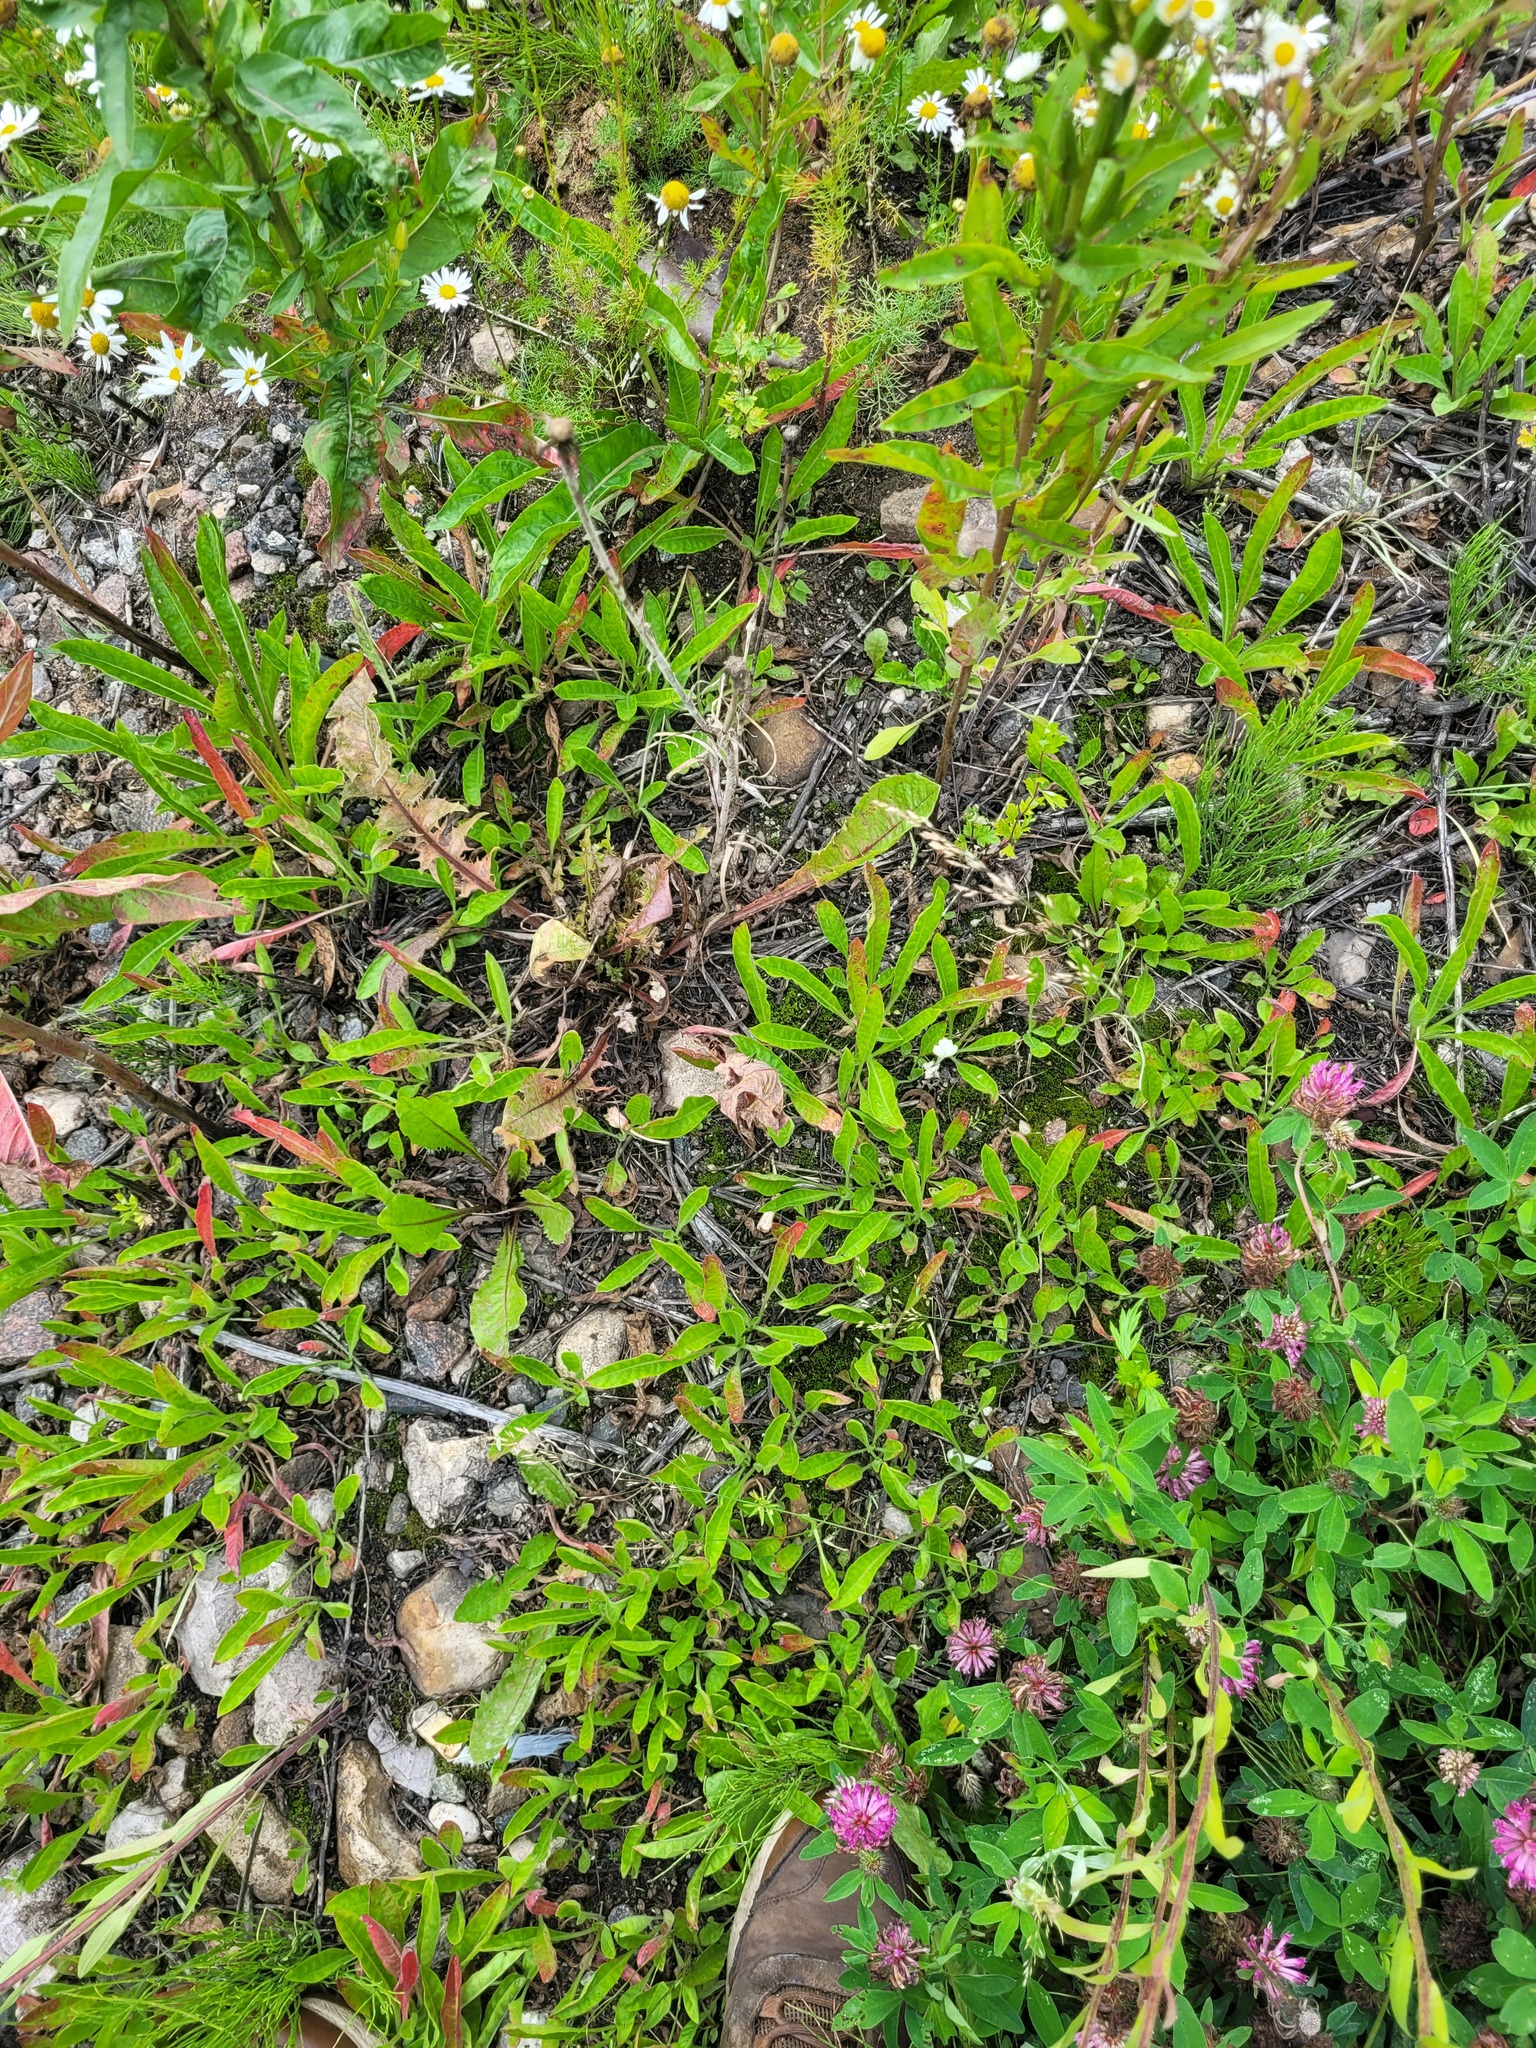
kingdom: Plantae
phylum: Tracheophyta
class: Magnoliopsida
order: Myrtales
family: Onagraceae
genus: Oenothera
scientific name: Oenothera biennis
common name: Common evening-primrose
